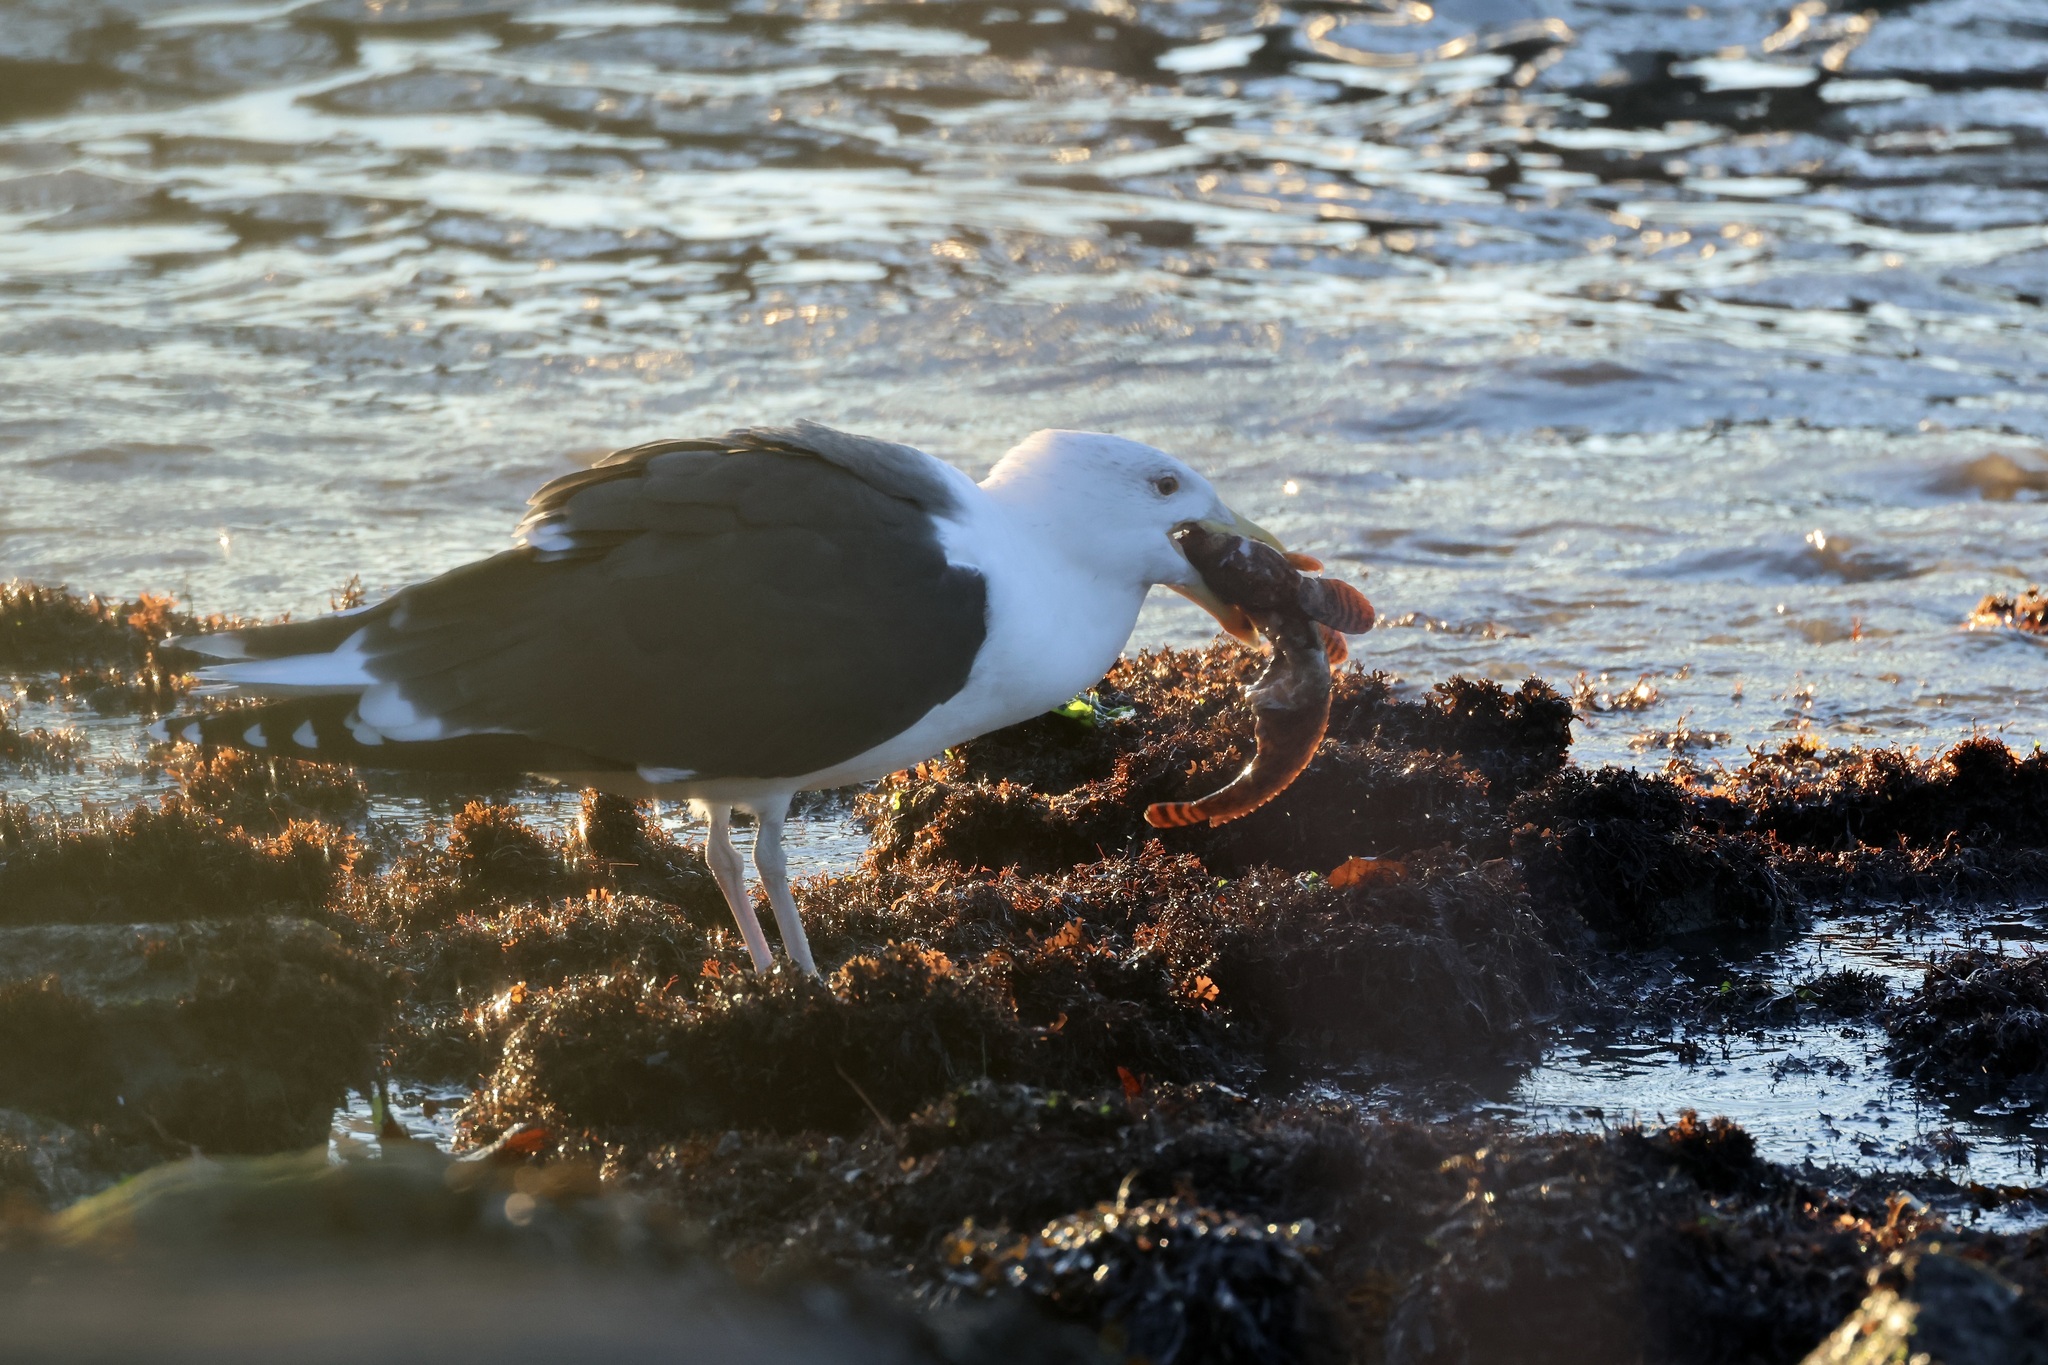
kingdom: Animalia
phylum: Chordata
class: Aves
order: Charadriiformes
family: Laridae
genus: Larus
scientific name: Larus marinus
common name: Great black-backed gull
